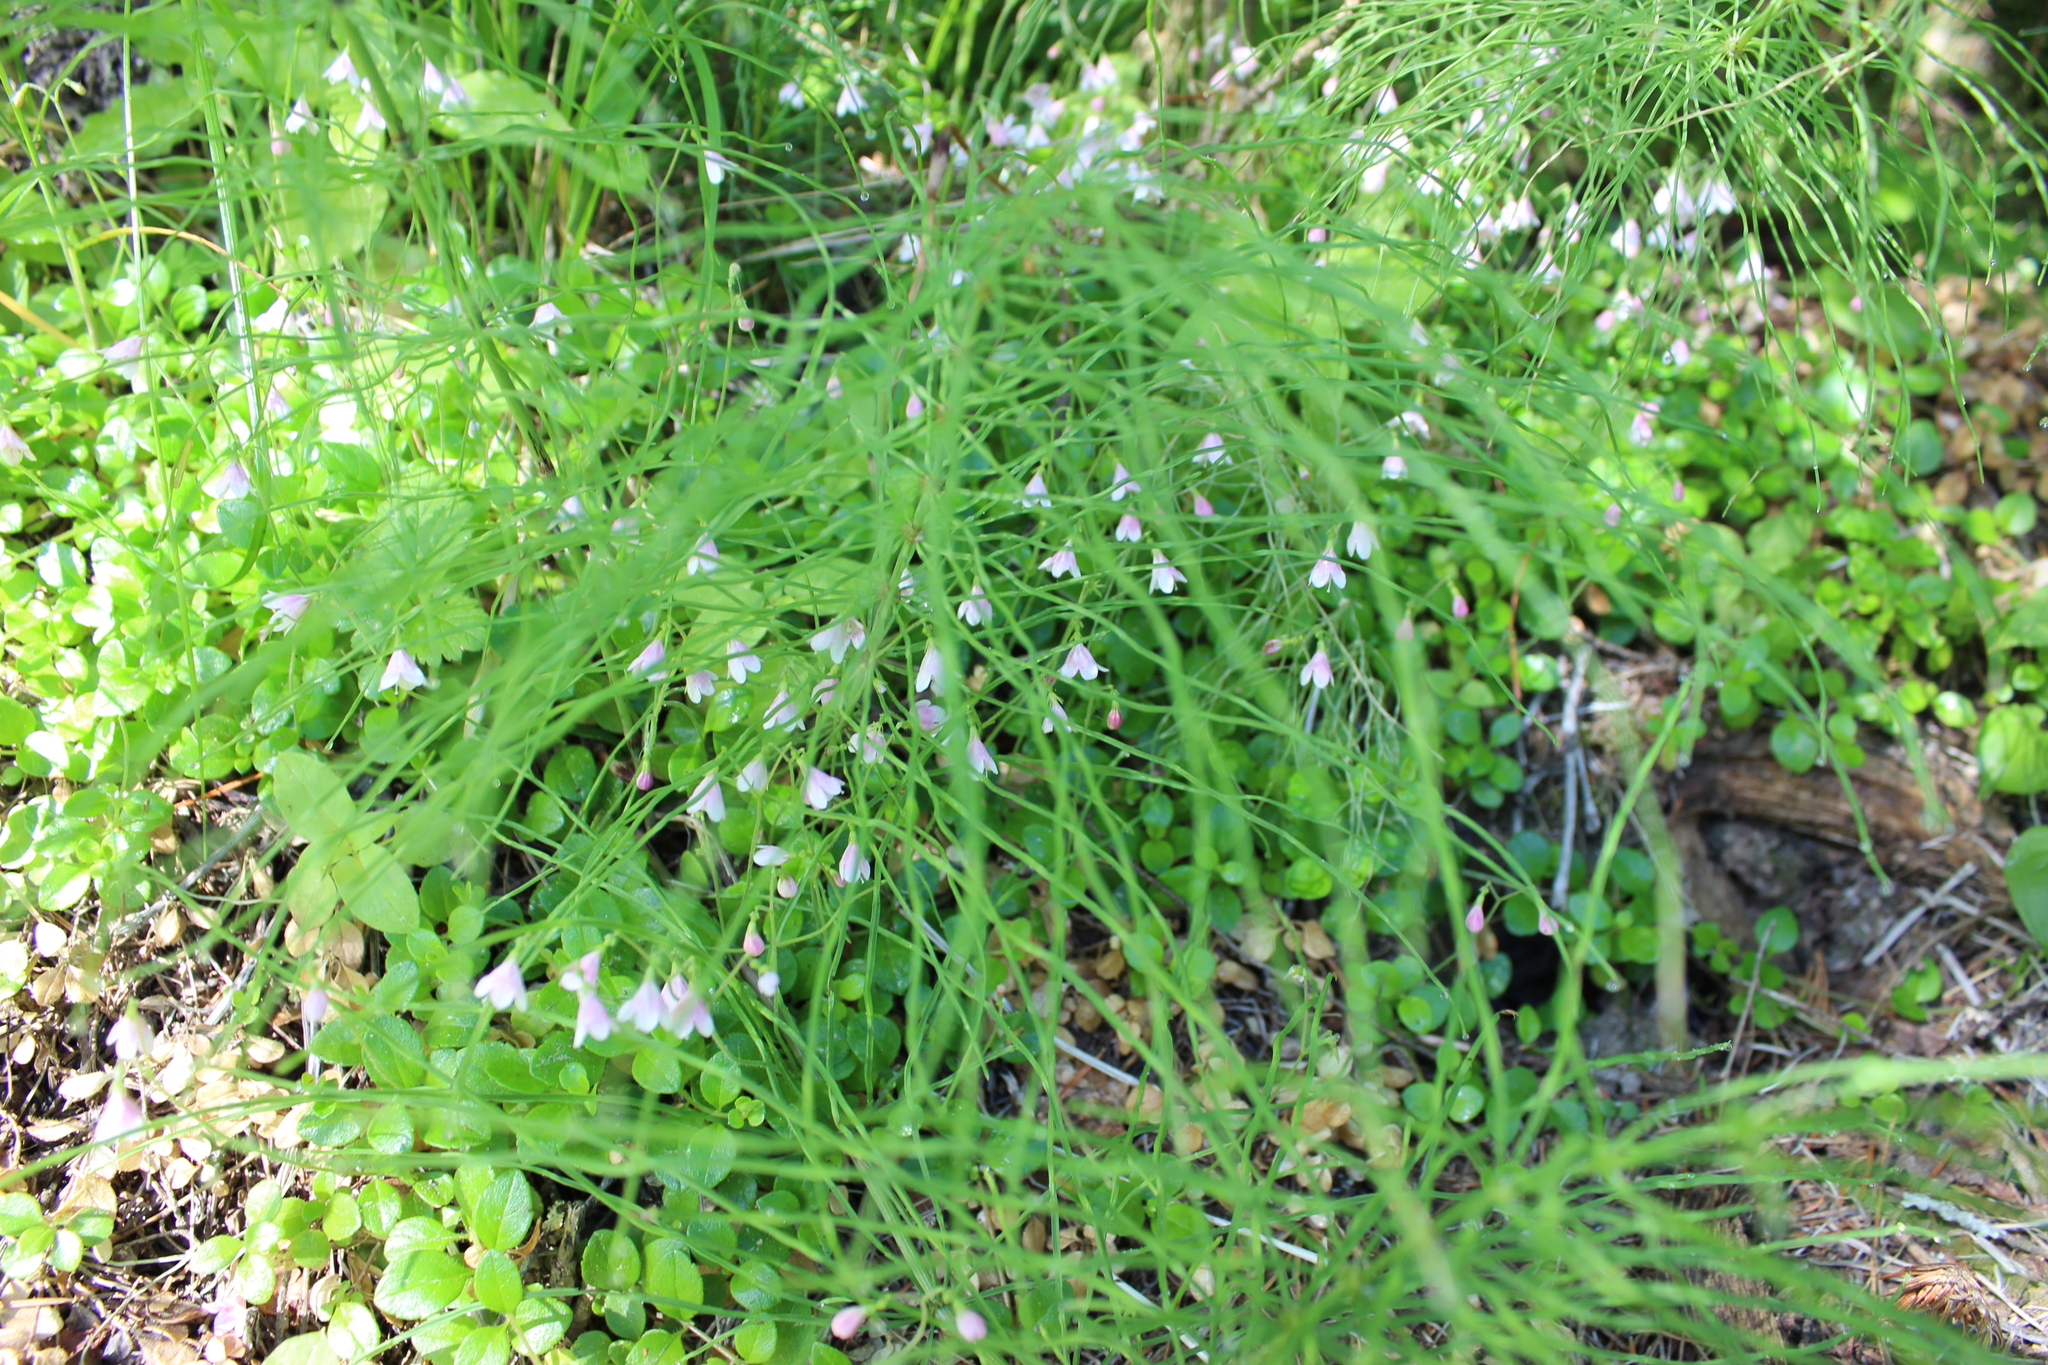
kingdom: Plantae
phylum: Tracheophyta
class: Magnoliopsida
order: Dipsacales
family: Caprifoliaceae
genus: Linnaea
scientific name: Linnaea borealis
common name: Twinflower
